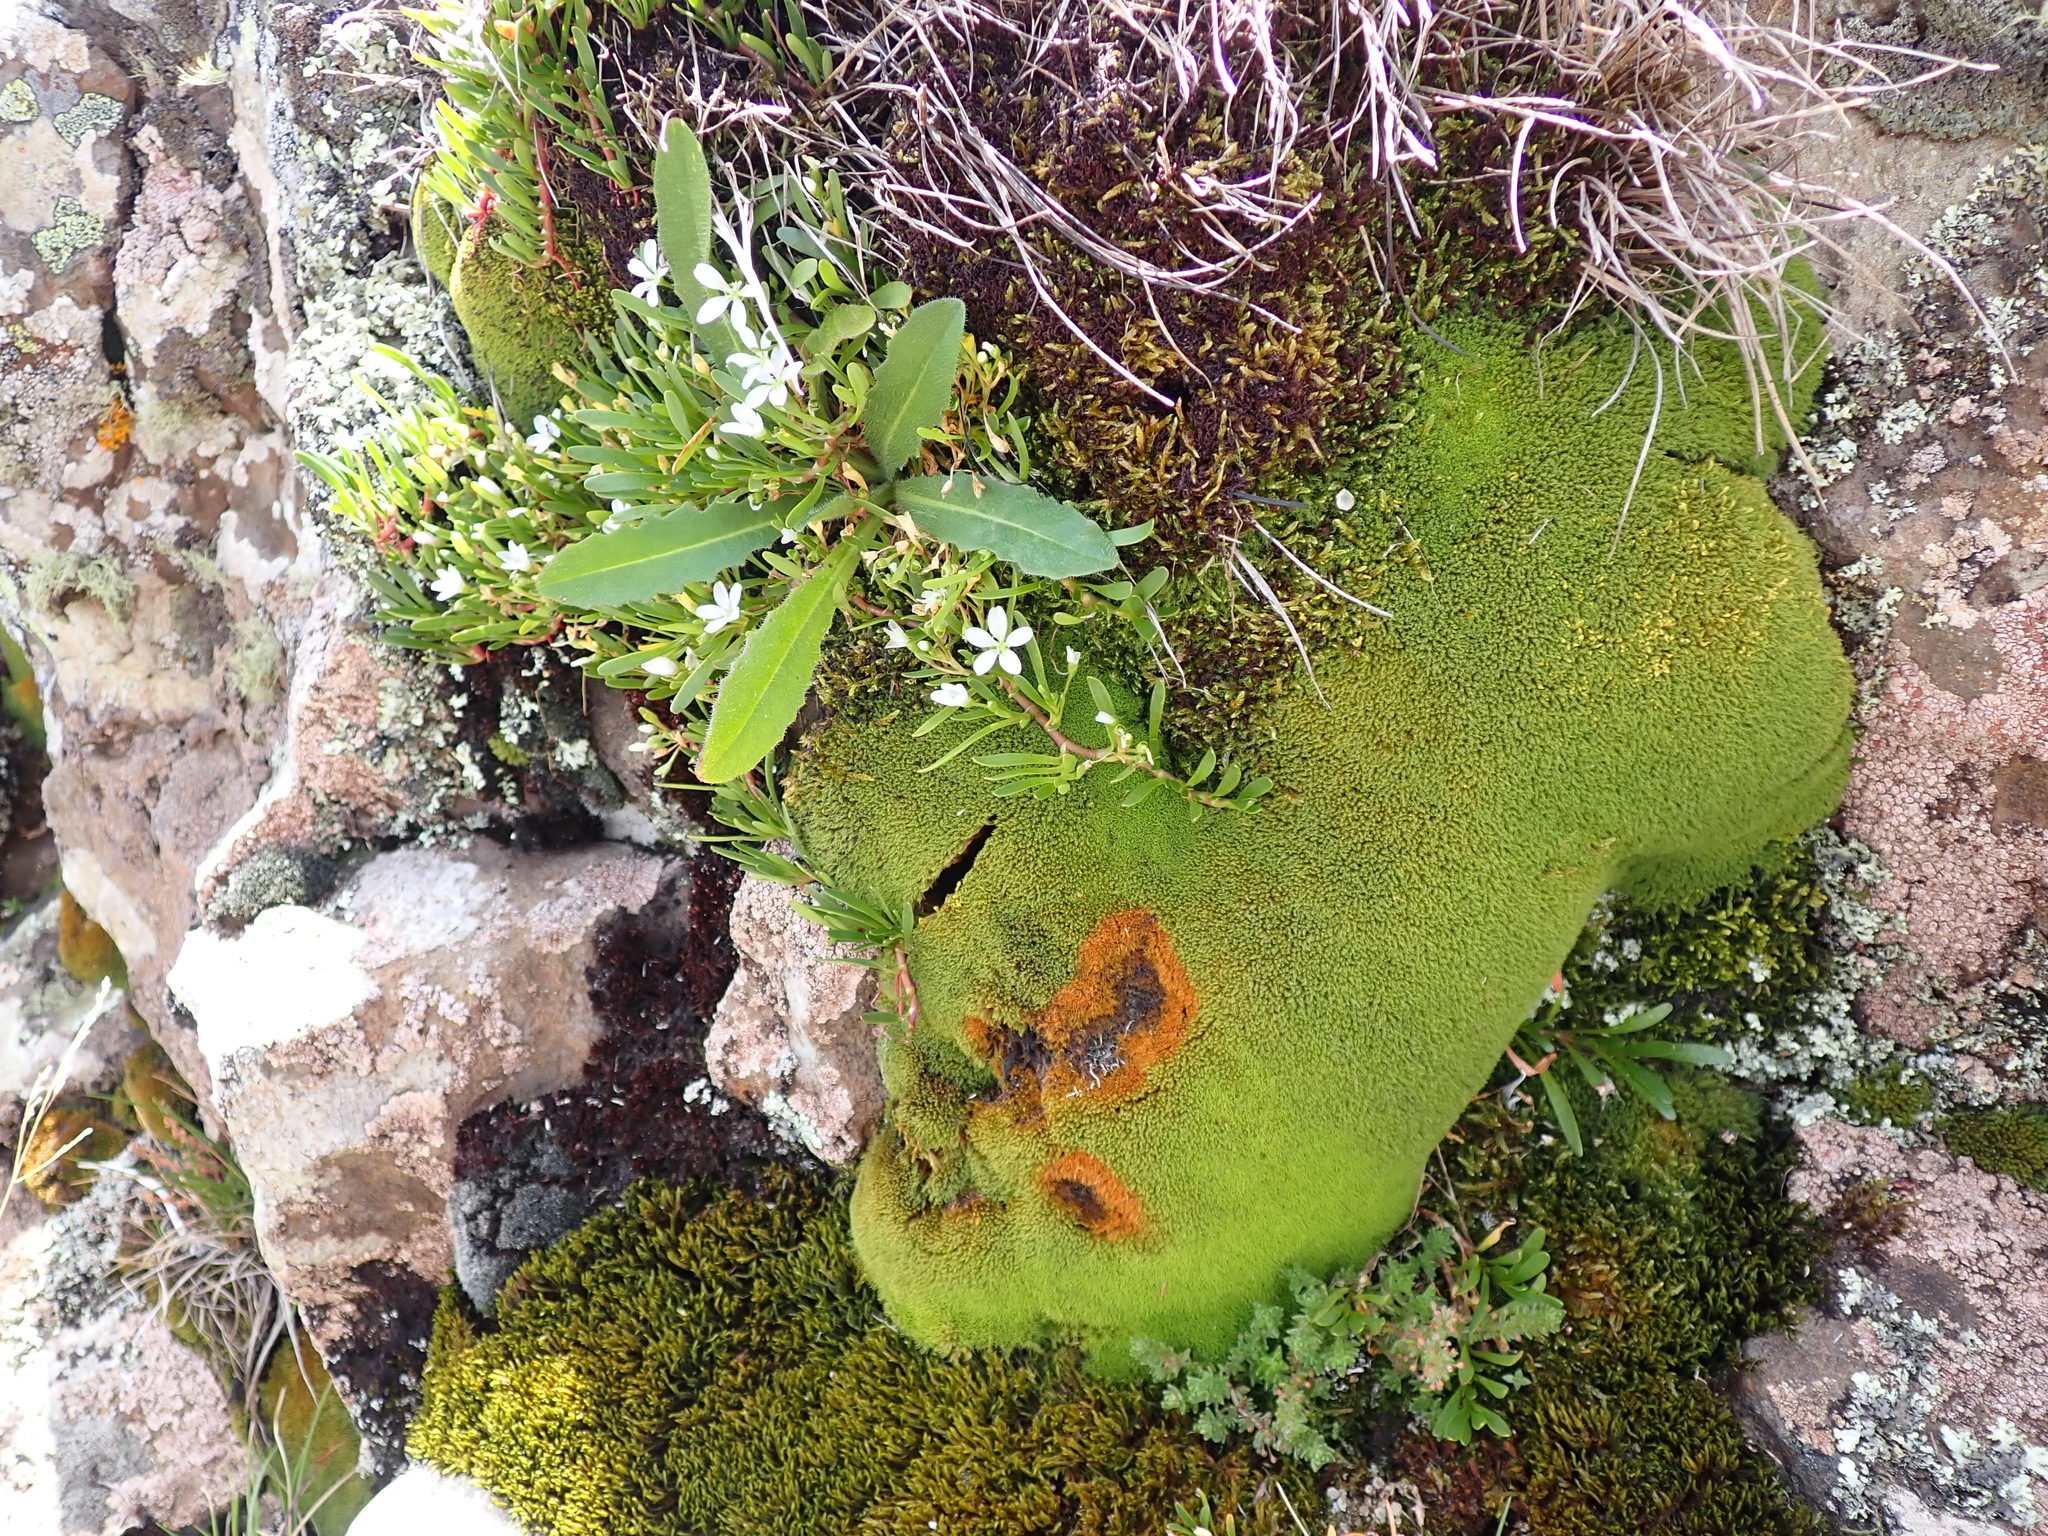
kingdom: Plantae
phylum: Tracheophyta
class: Magnoliopsida
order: Caryophyllales
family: Montiaceae
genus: Montia
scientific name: Montia australasica
